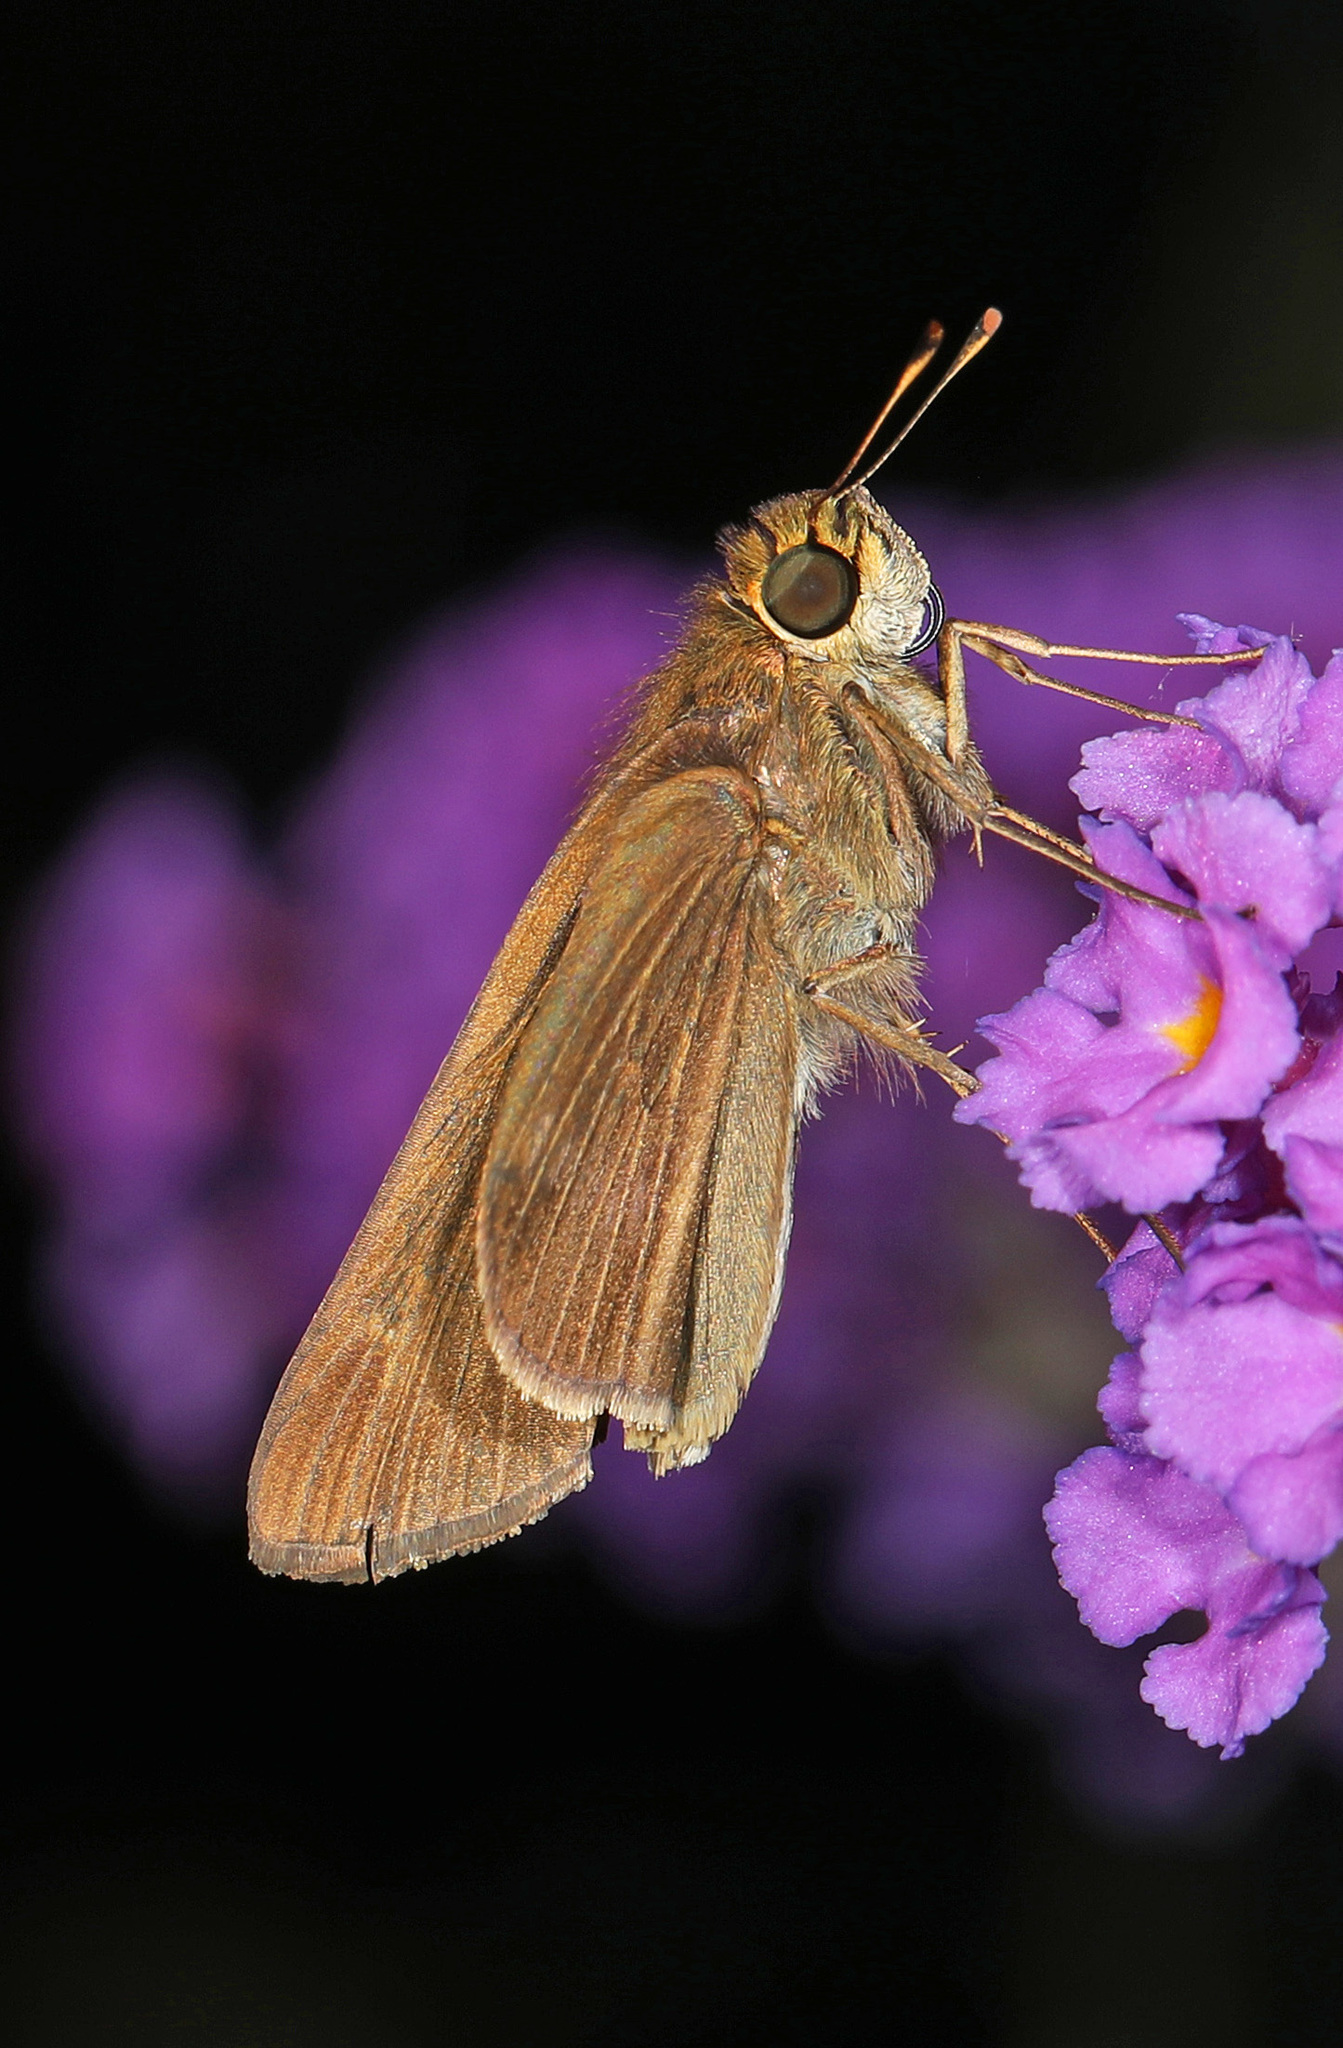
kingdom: Animalia
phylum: Arthropoda
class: Insecta
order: Lepidoptera
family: Hesperiidae
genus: Panoquina
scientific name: Panoquina ocola
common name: Ocola skipper
